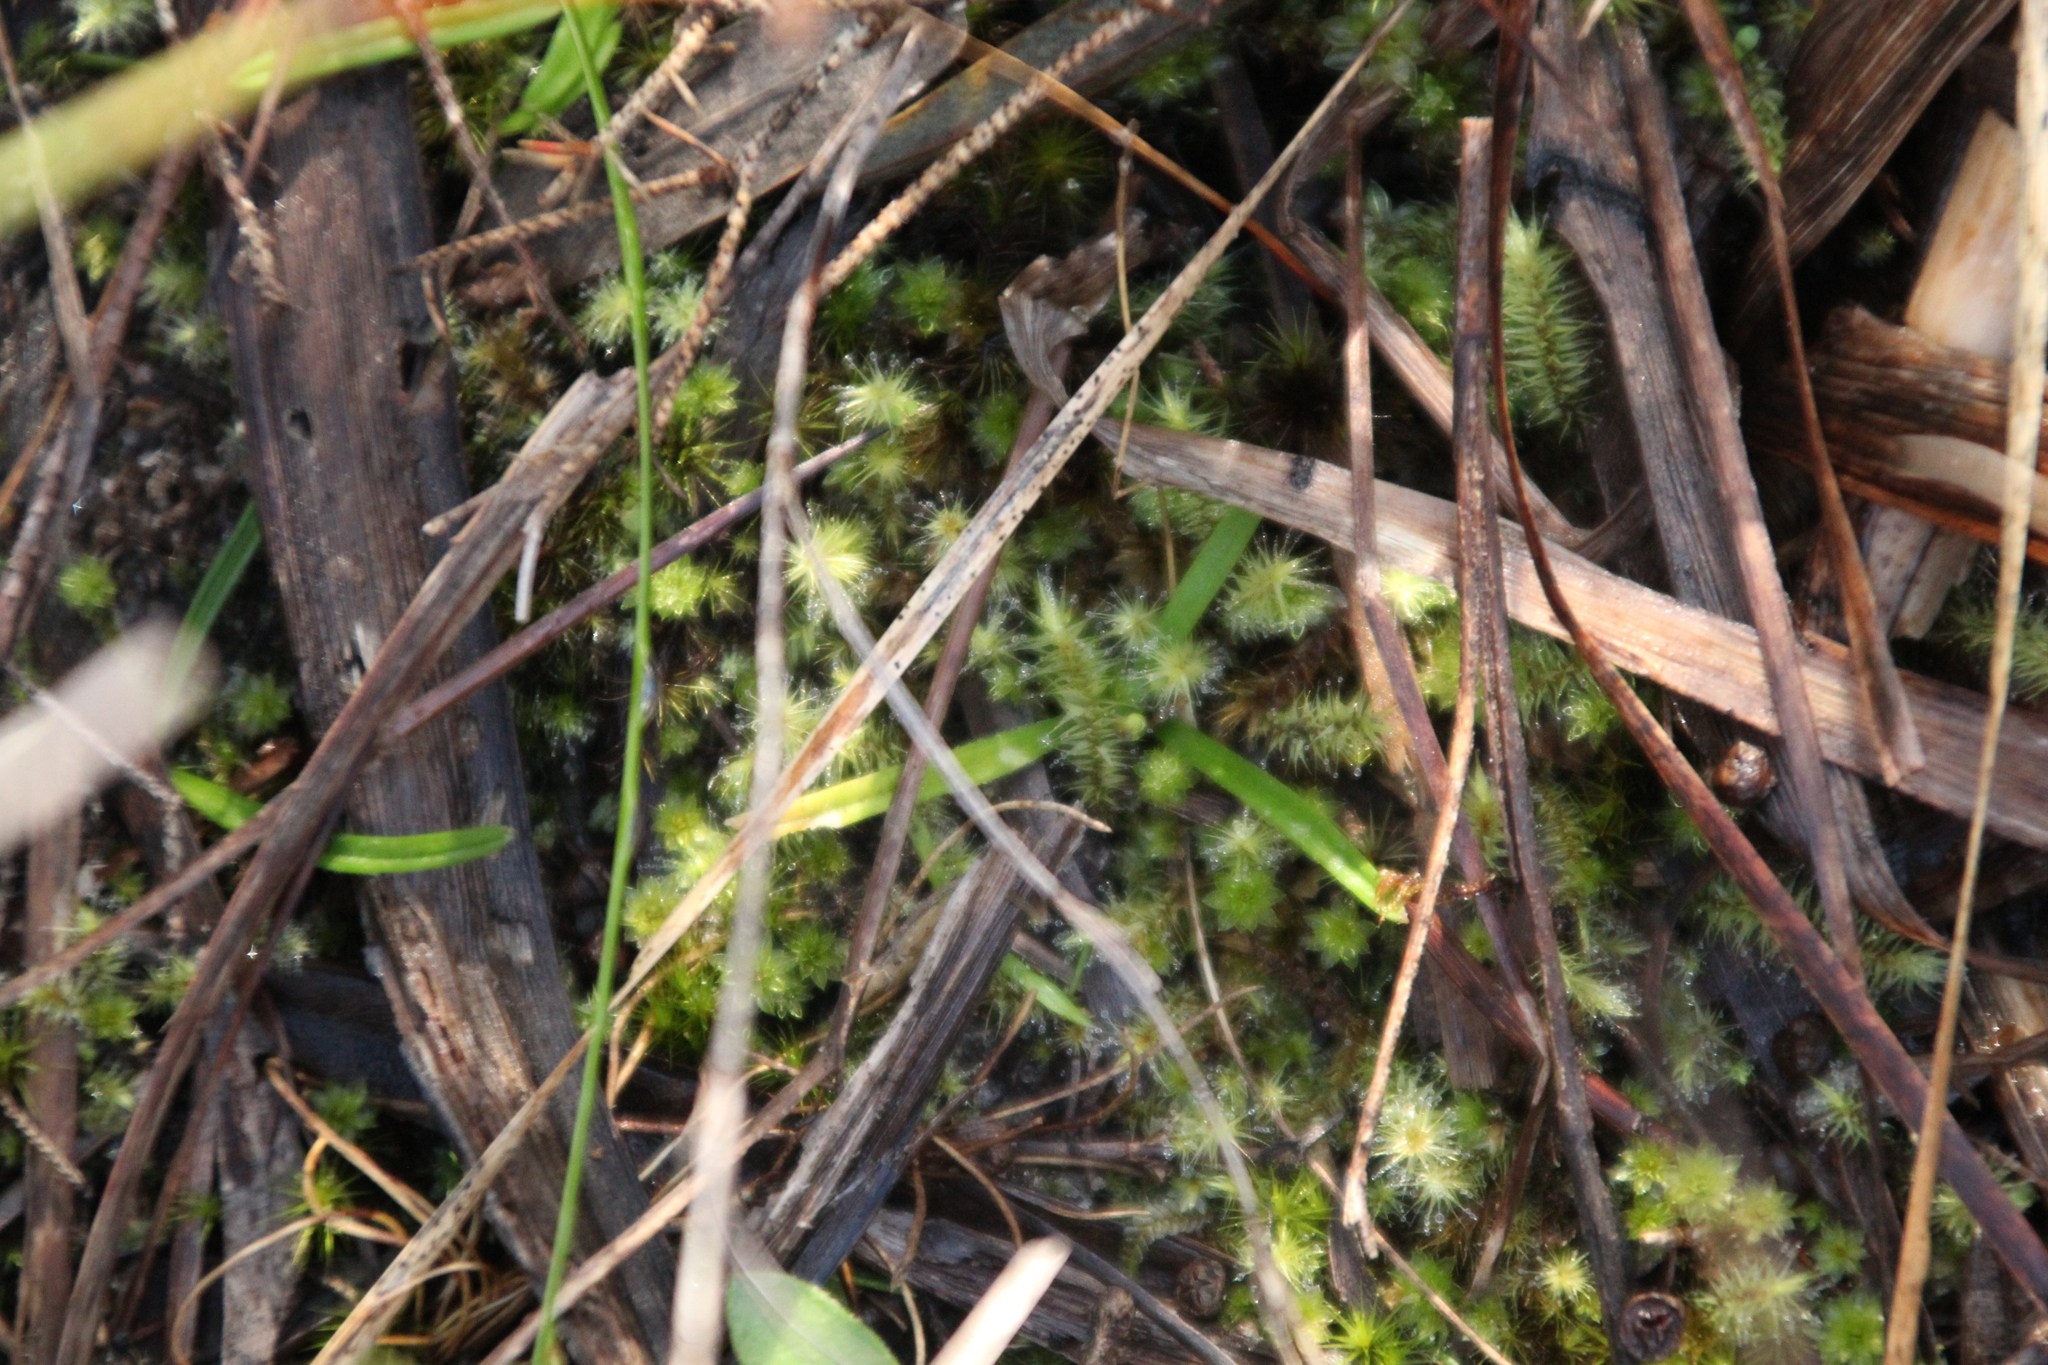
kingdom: Plantae
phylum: Bryophyta
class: Bryopsida
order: Bartramiales
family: Bartramiaceae
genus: Breutelia
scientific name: Breutelia affinis
